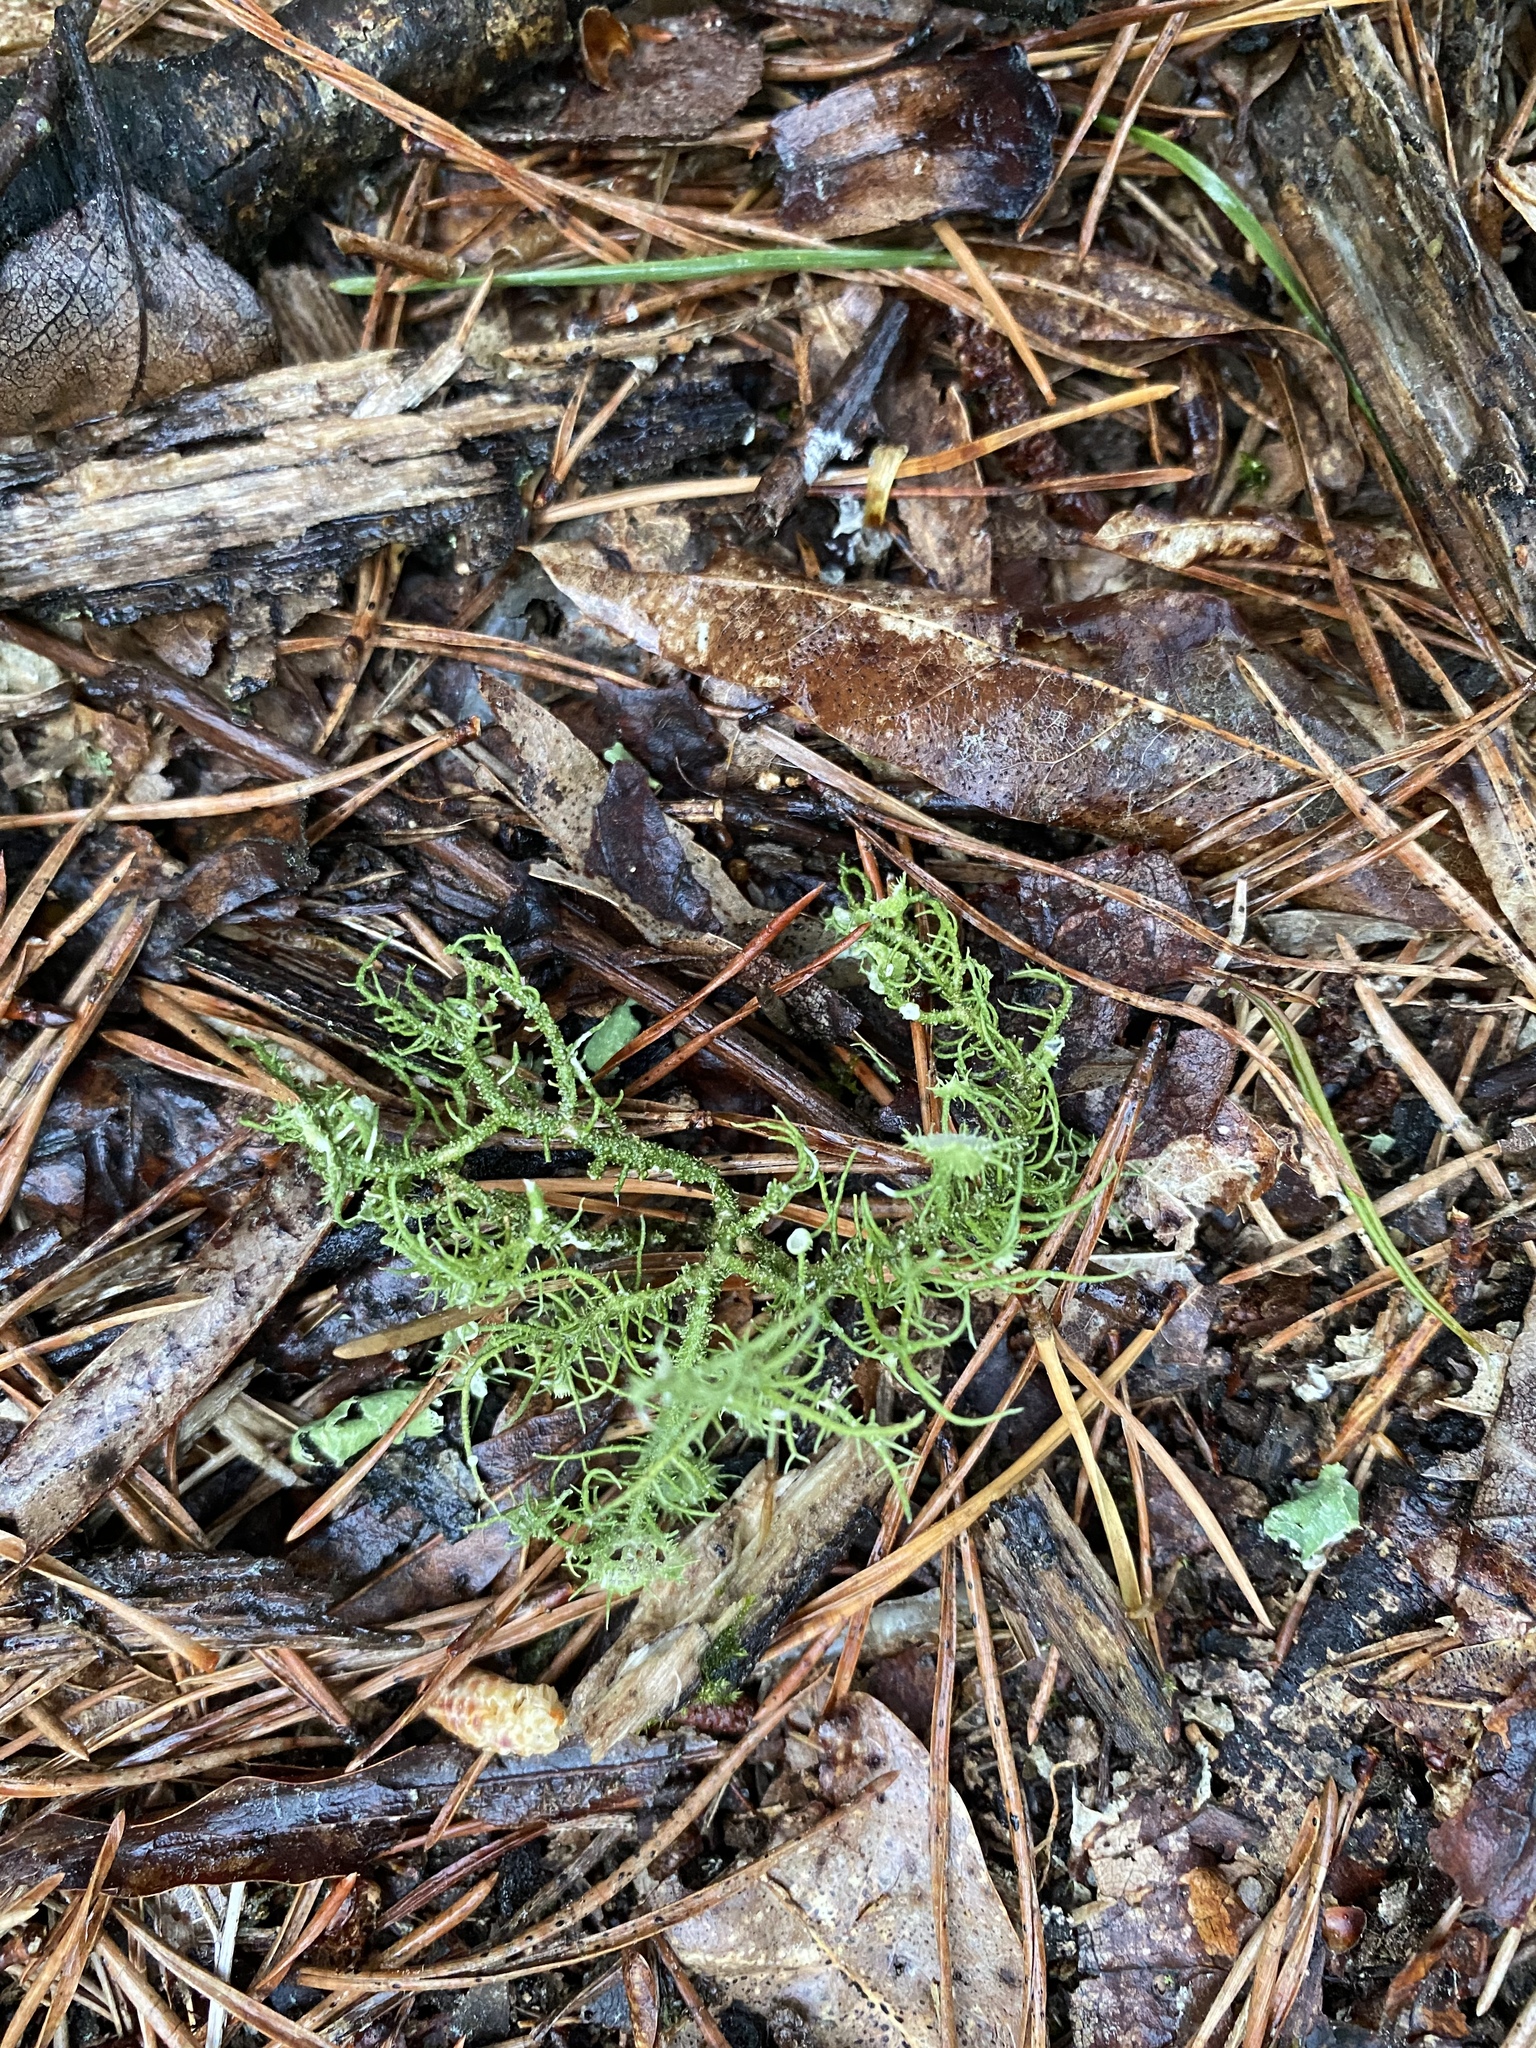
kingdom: Fungi
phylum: Ascomycota
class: Lecanoromycetes
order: Lecanorales
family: Parmeliaceae
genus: Usnea
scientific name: Usnea strigosa
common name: Bushy beard lichen
